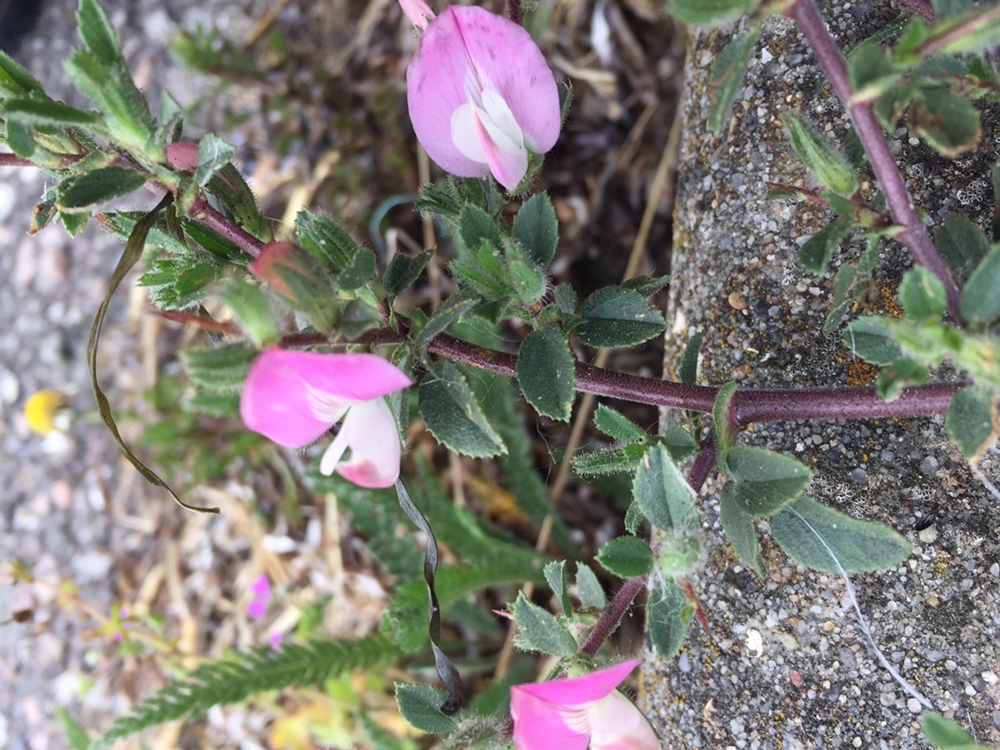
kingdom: Plantae
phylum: Tracheophyta
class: Magnoliopsida
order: Fabales
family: Fabaceae
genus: Ononis
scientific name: Ononis spinosa
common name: Spiny restharrow
